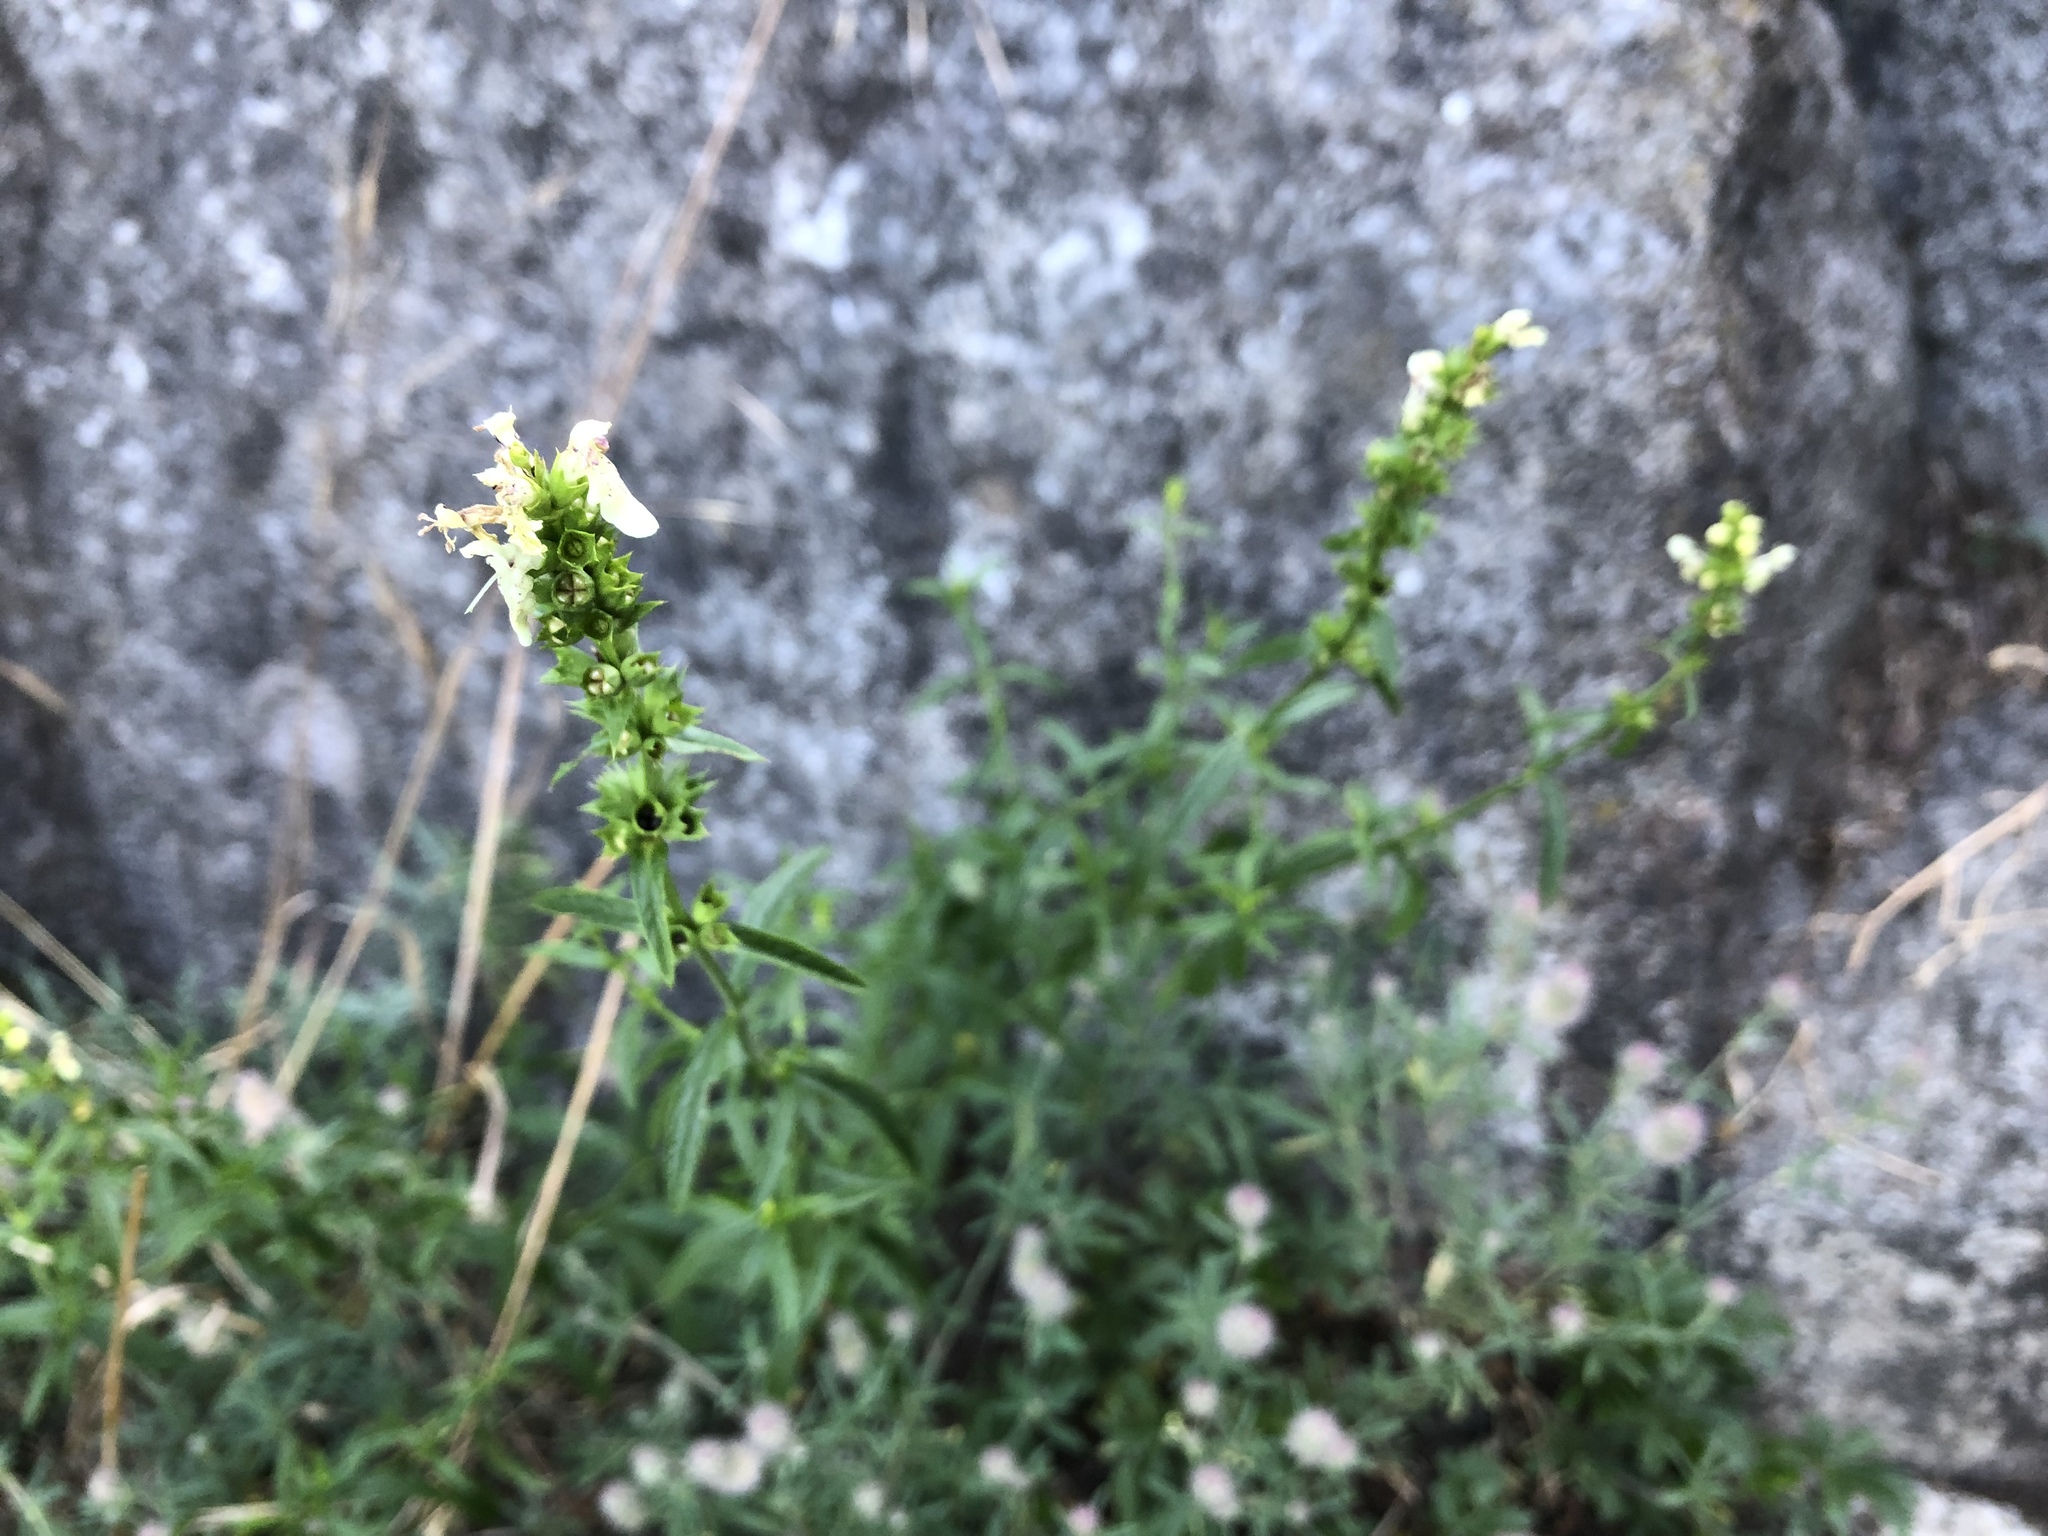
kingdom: Plantae
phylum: Tracheophyta
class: Magnoliopsida
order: Lamiales
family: Lamiaceae
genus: Stachys
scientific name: Stachys recta
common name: Perennial yellow-woundwort
